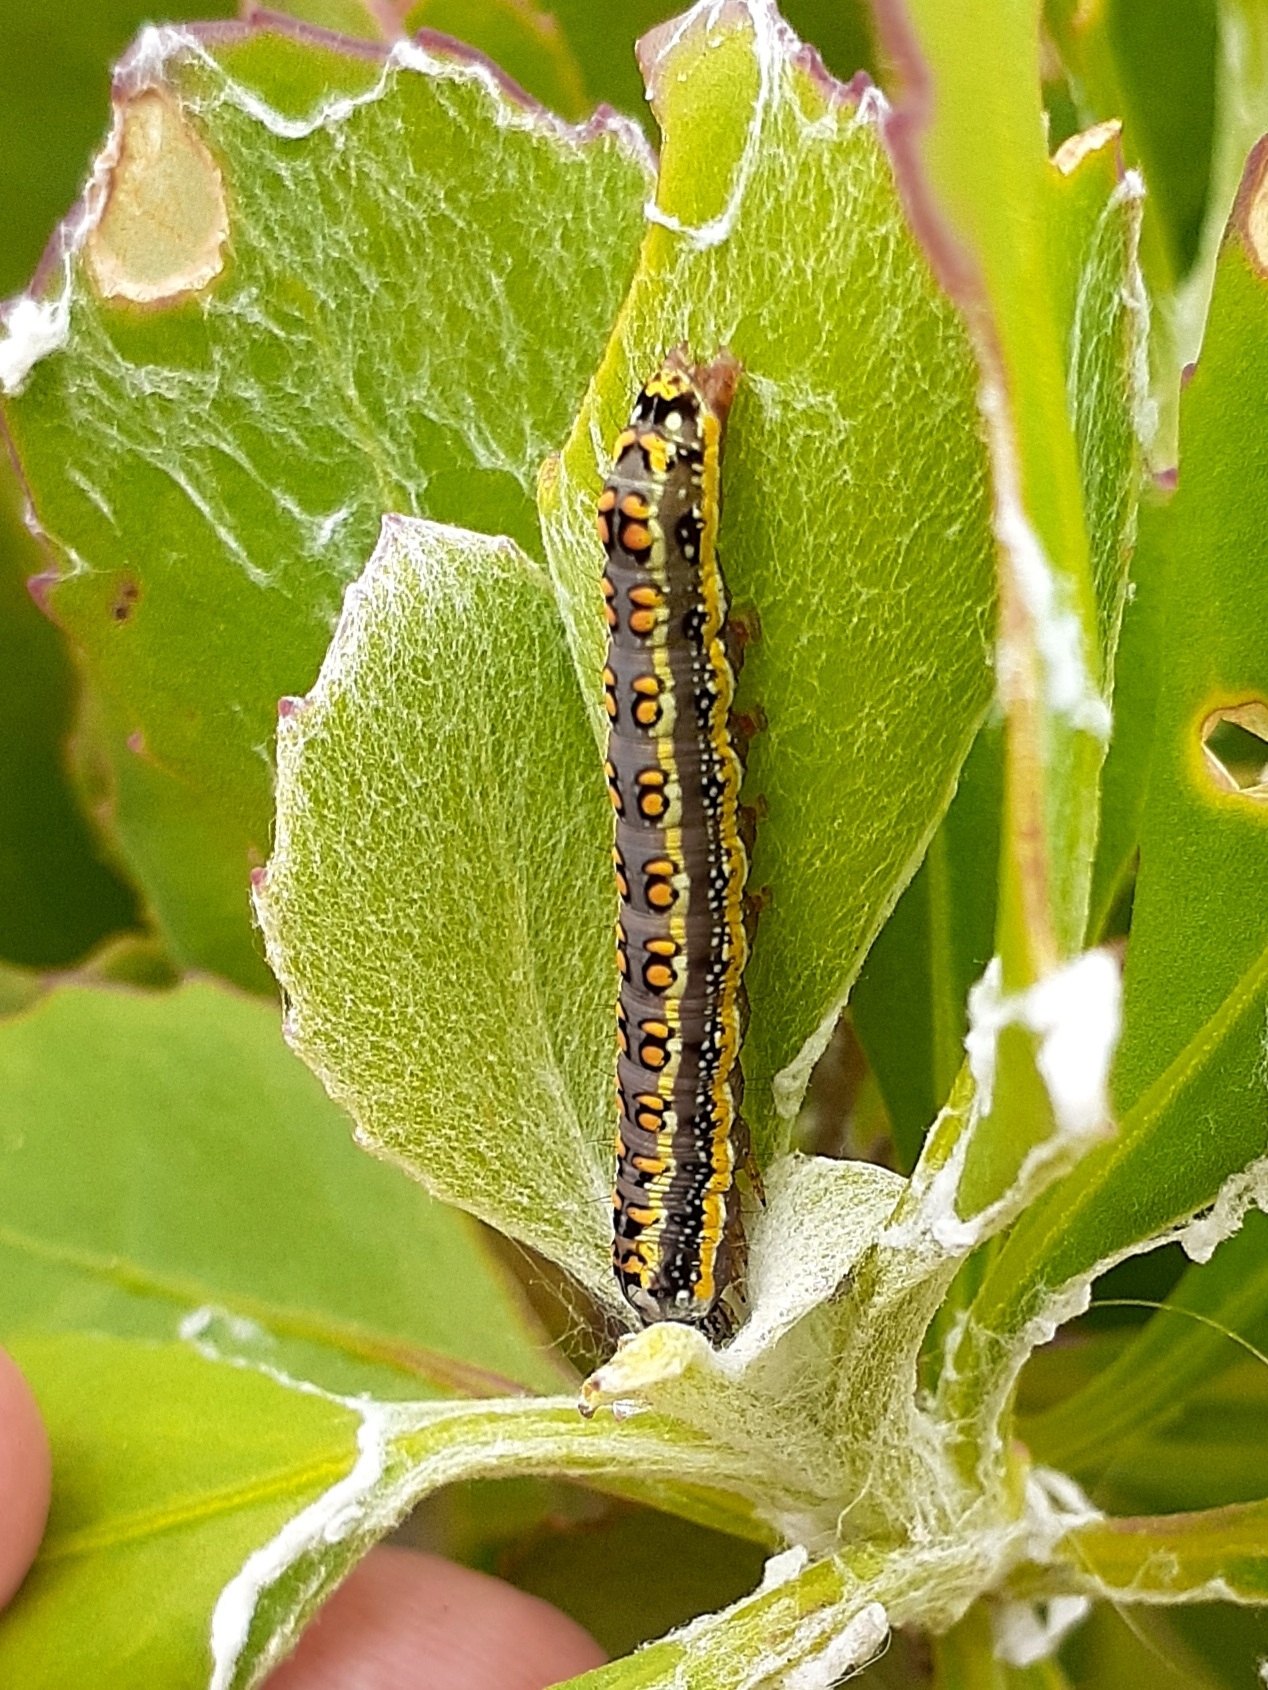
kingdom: Animalia
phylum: Arthropoda
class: Insecta
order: Lepidoptera
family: Noctuidae
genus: Cucullia
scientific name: Cucullia inaequalis
